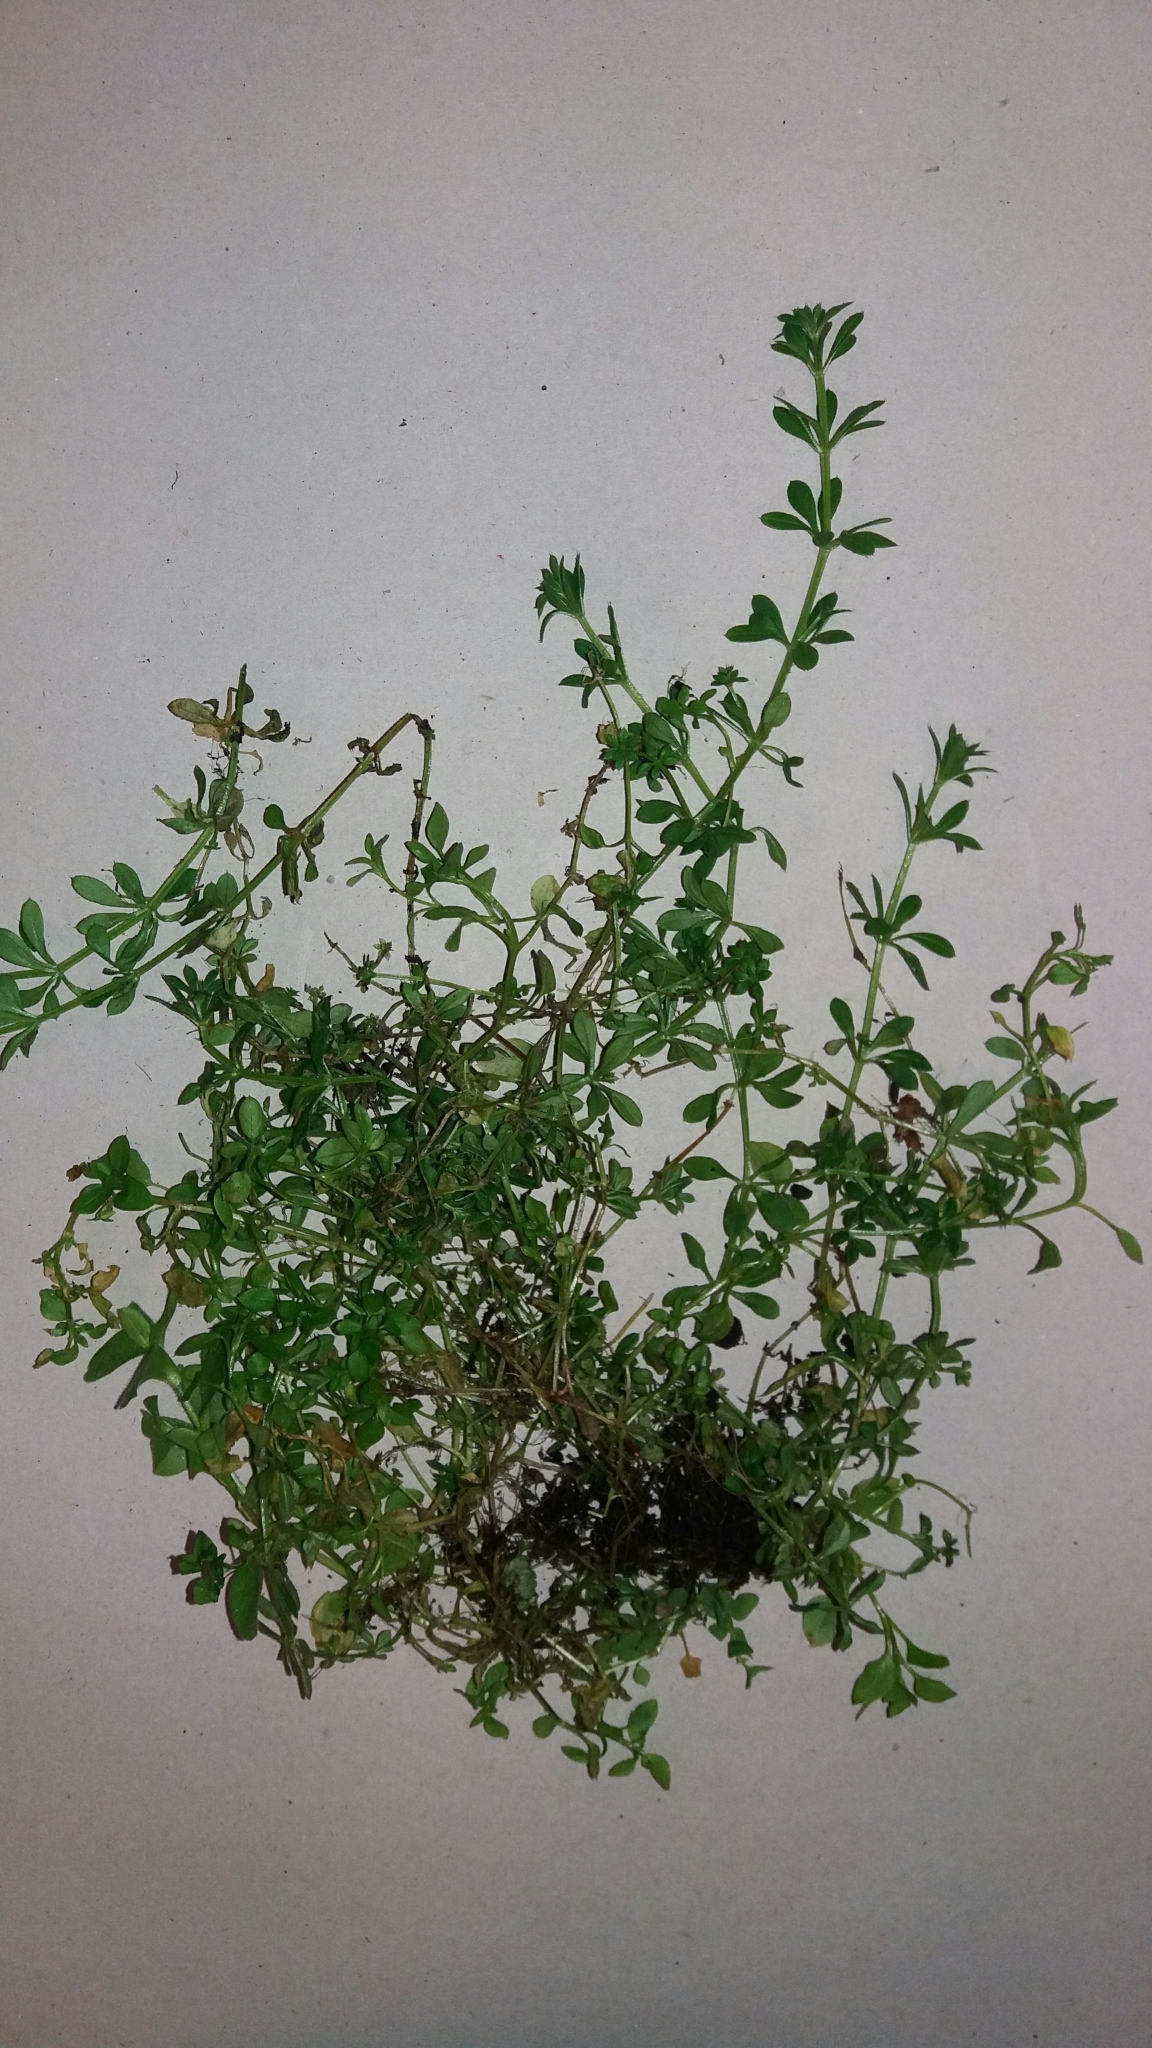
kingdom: Plantae
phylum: Tracheophyta
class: Magnoliopsida
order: Gentianales
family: Rubiaceae
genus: Galium
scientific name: Galium aparine
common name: Cleavers
